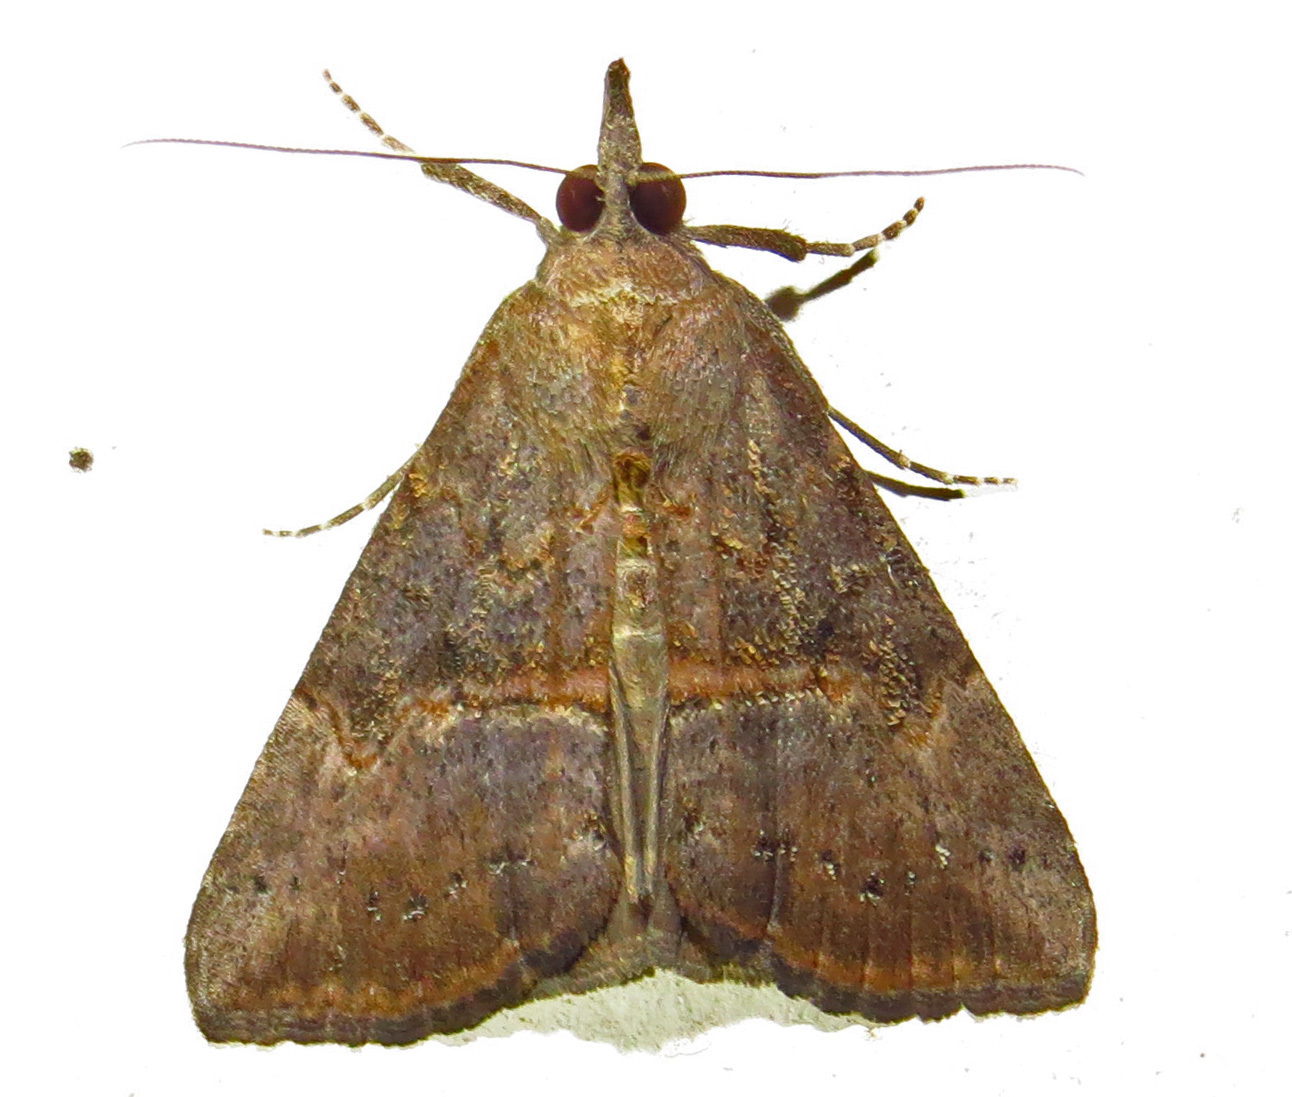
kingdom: Animalia
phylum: Arthropoda
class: Insecta
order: Lepidoptera
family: Erebidae
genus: Hypena
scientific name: Hypena scabra
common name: Green cloverworm
